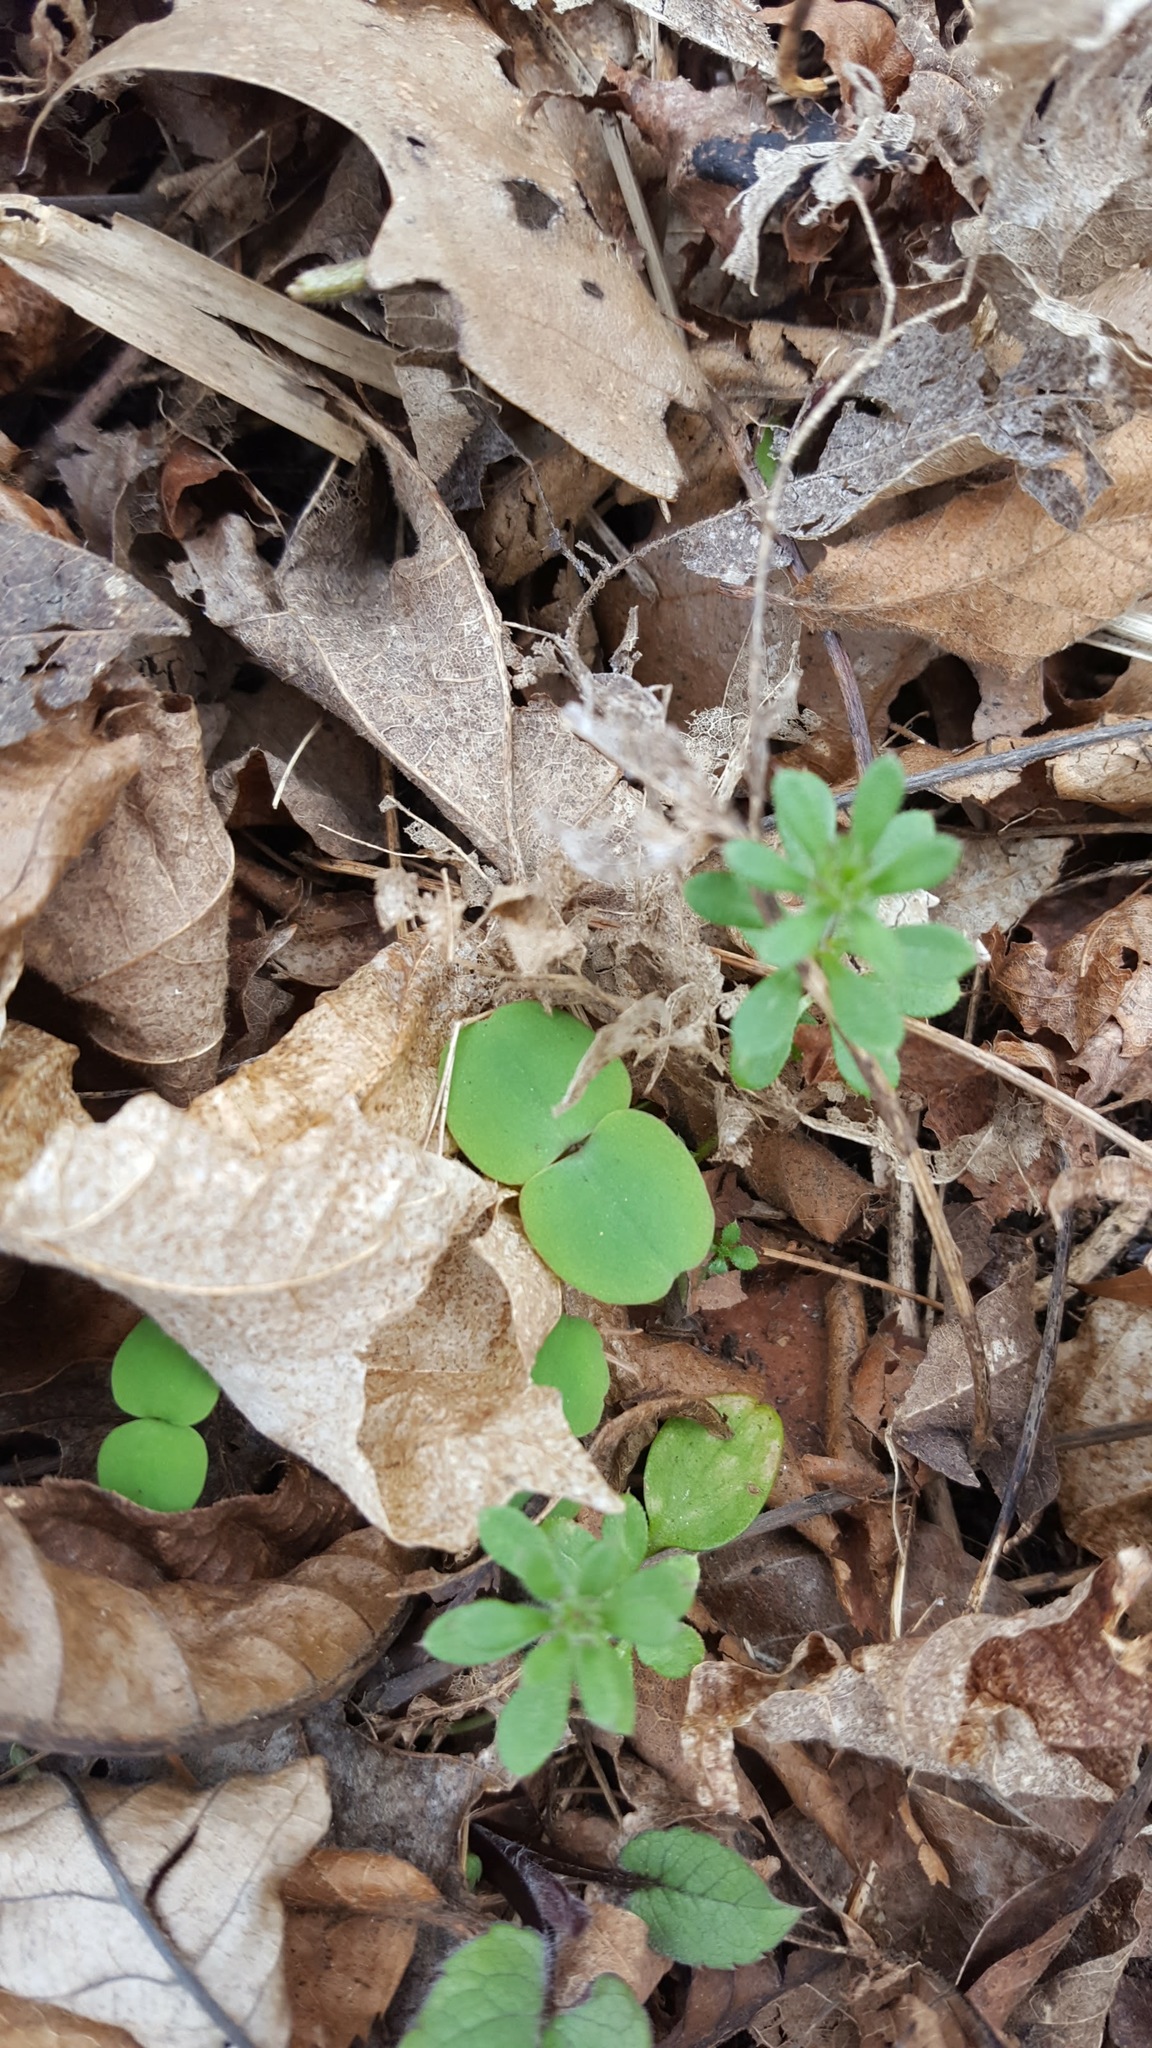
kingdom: Plantae
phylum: Tracheophyta
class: Magnoliopsida
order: Ericales
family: Balsaminaceae
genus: Impatiens
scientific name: Impatiens
